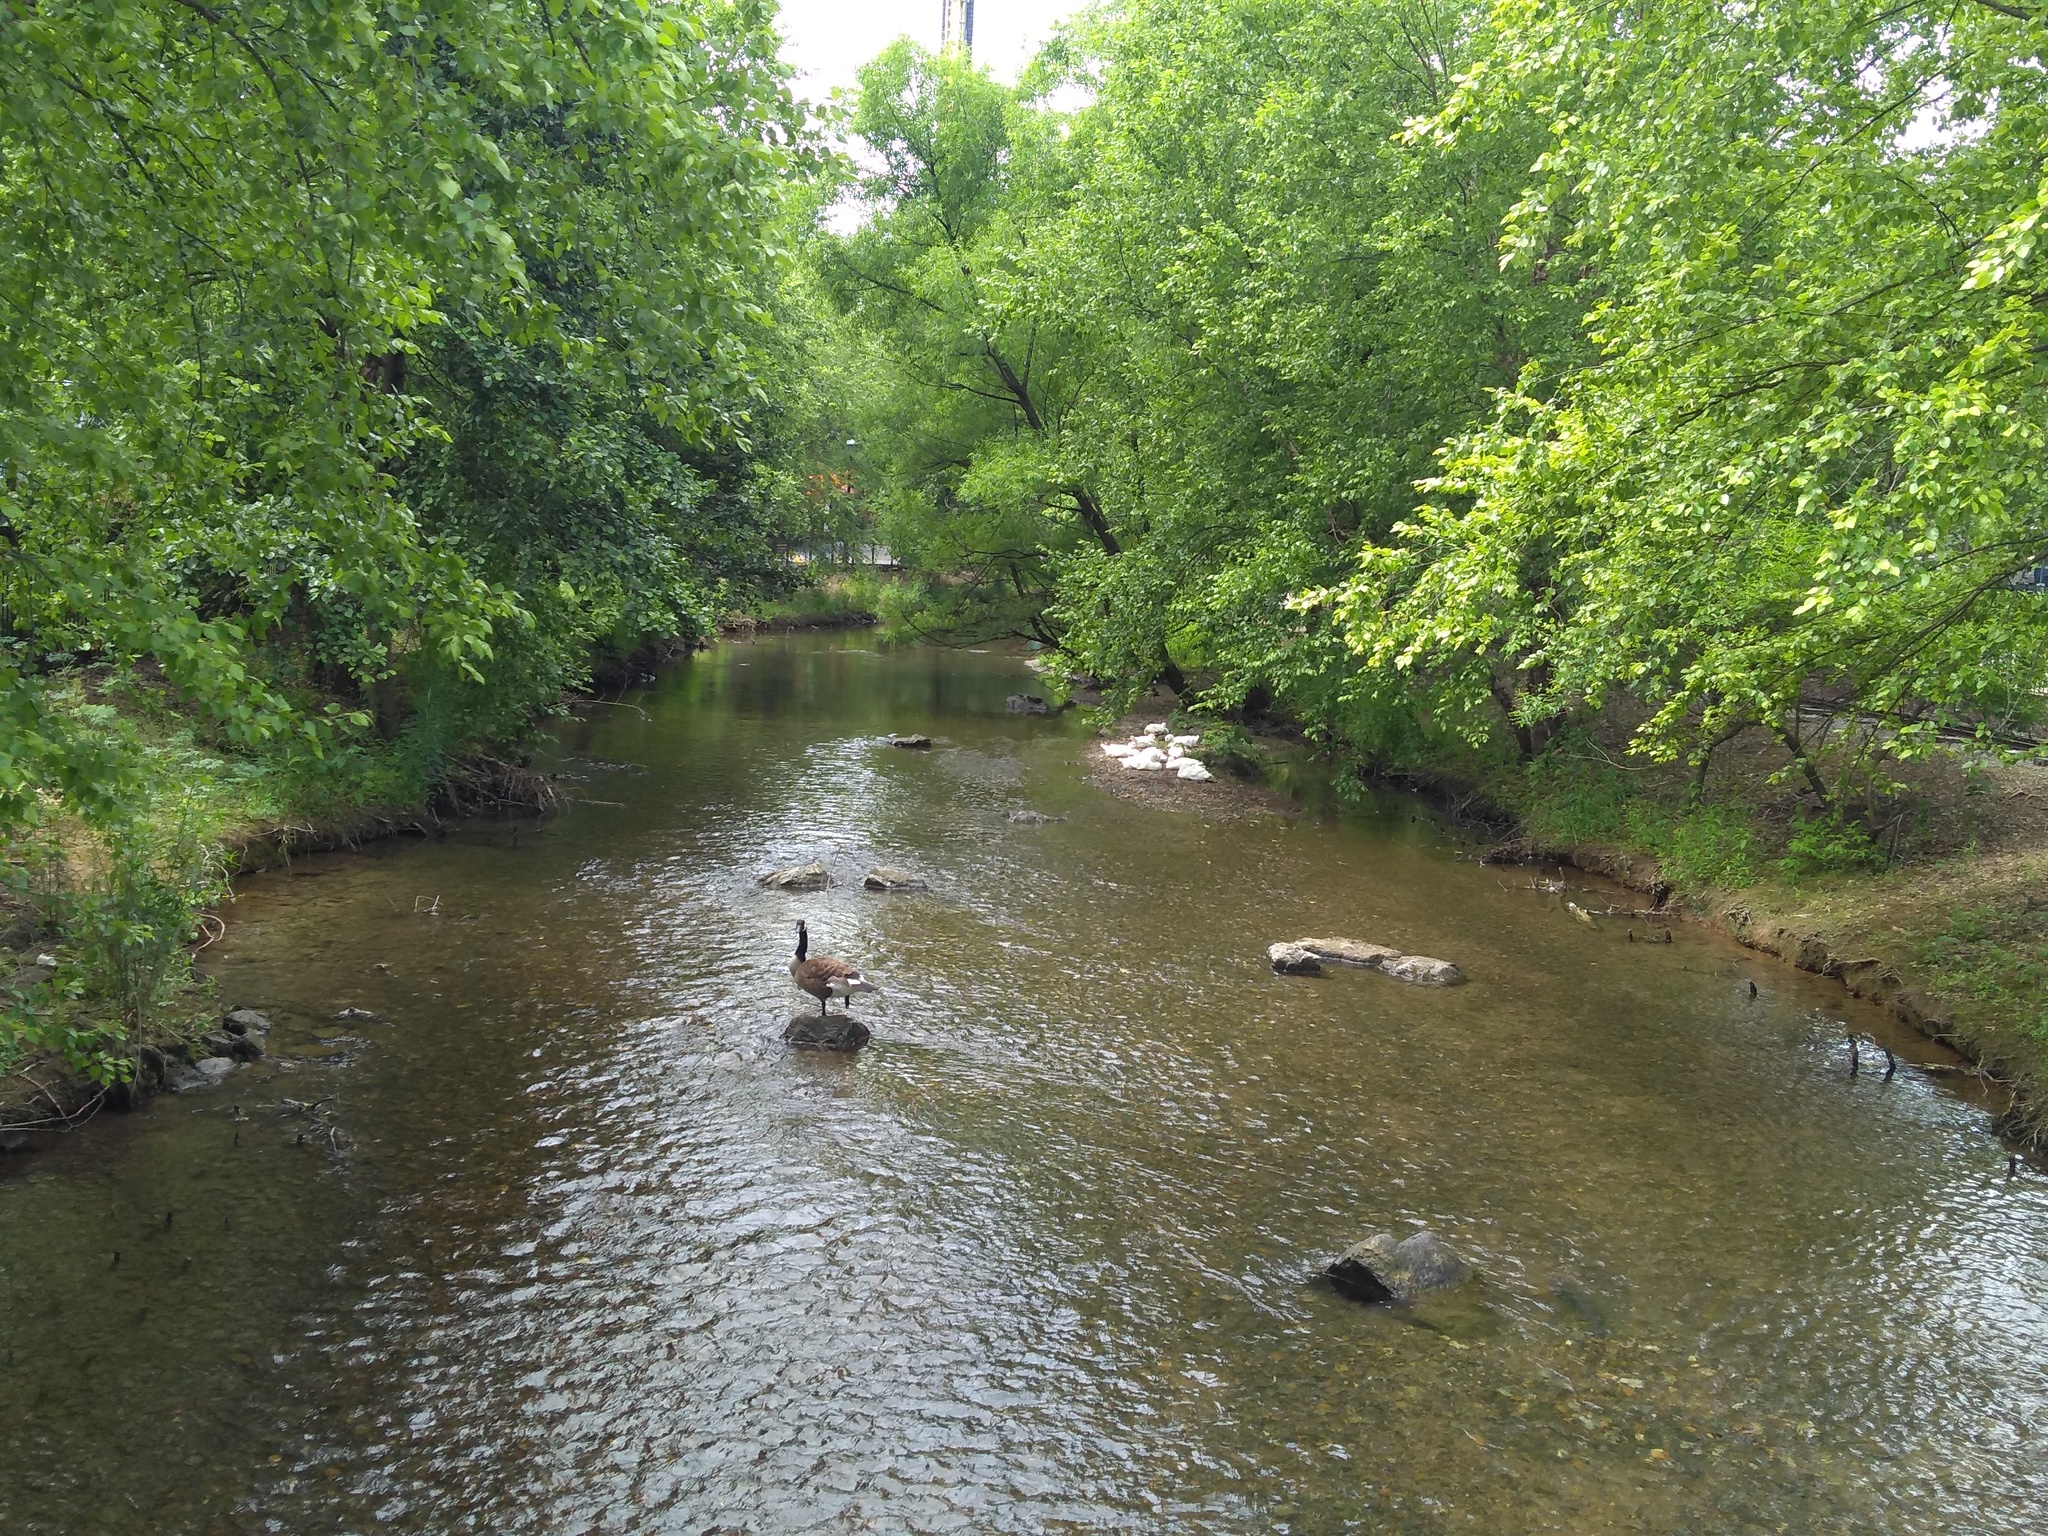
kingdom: Animalia
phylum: Chordata
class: Aves
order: Anseriformes
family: Anatidae
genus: Branta
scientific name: Branta canadensis
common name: Canada goose
